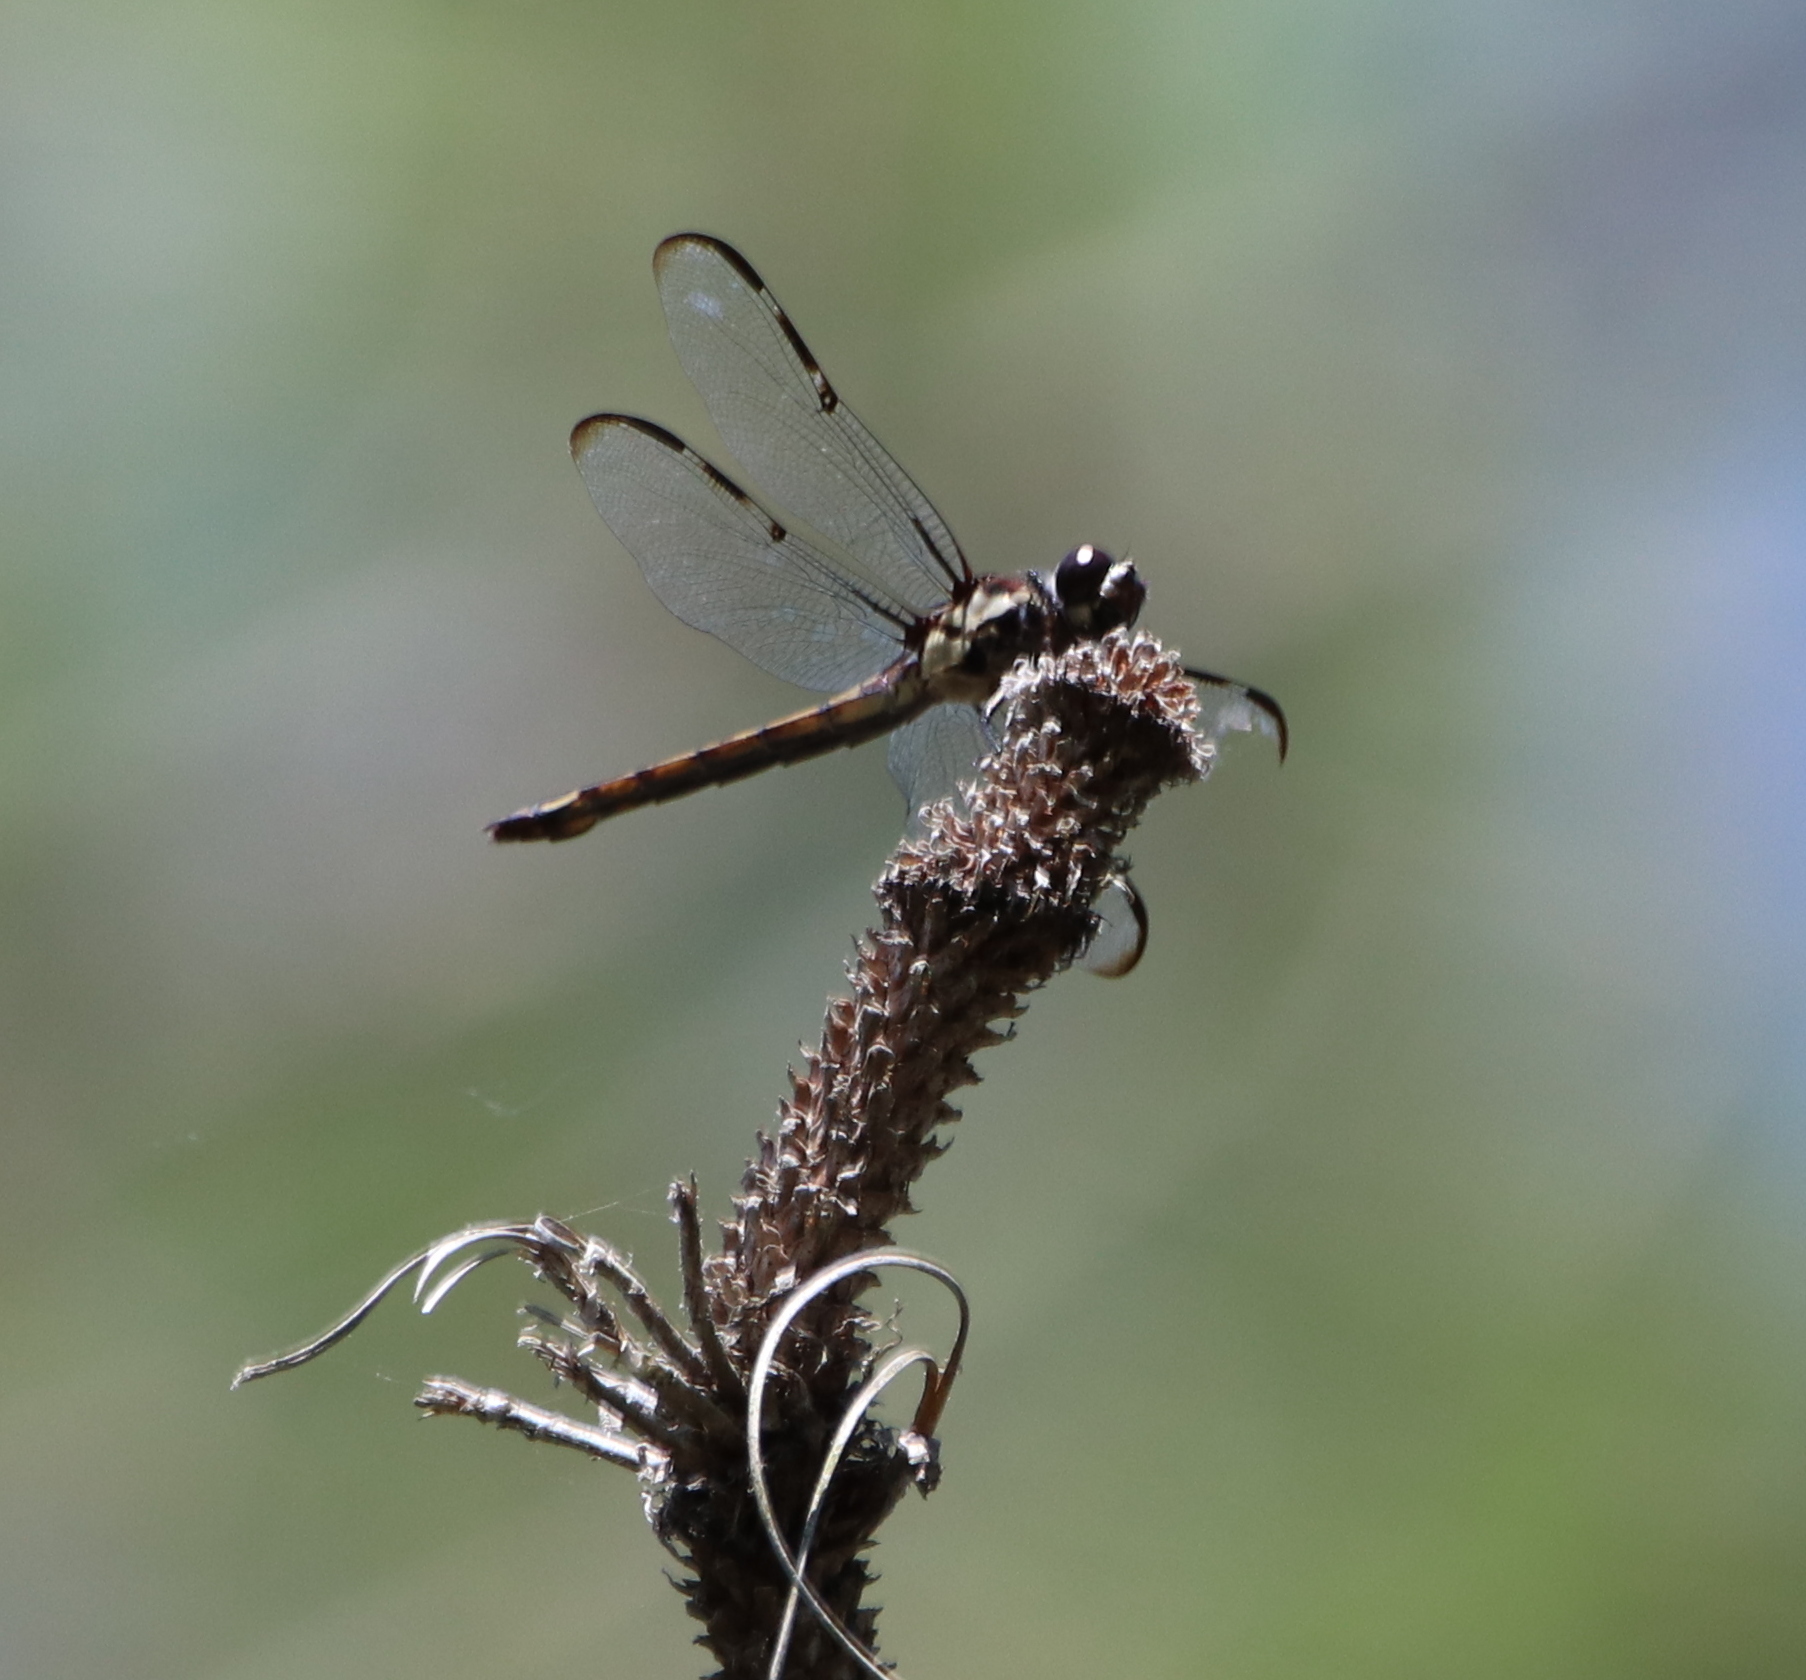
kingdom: Animalia
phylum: Arthropoda
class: Insecta
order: Odonata
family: Libellulidae
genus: Libellula
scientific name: Libellula axilena
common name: Bar-winged skimmer
